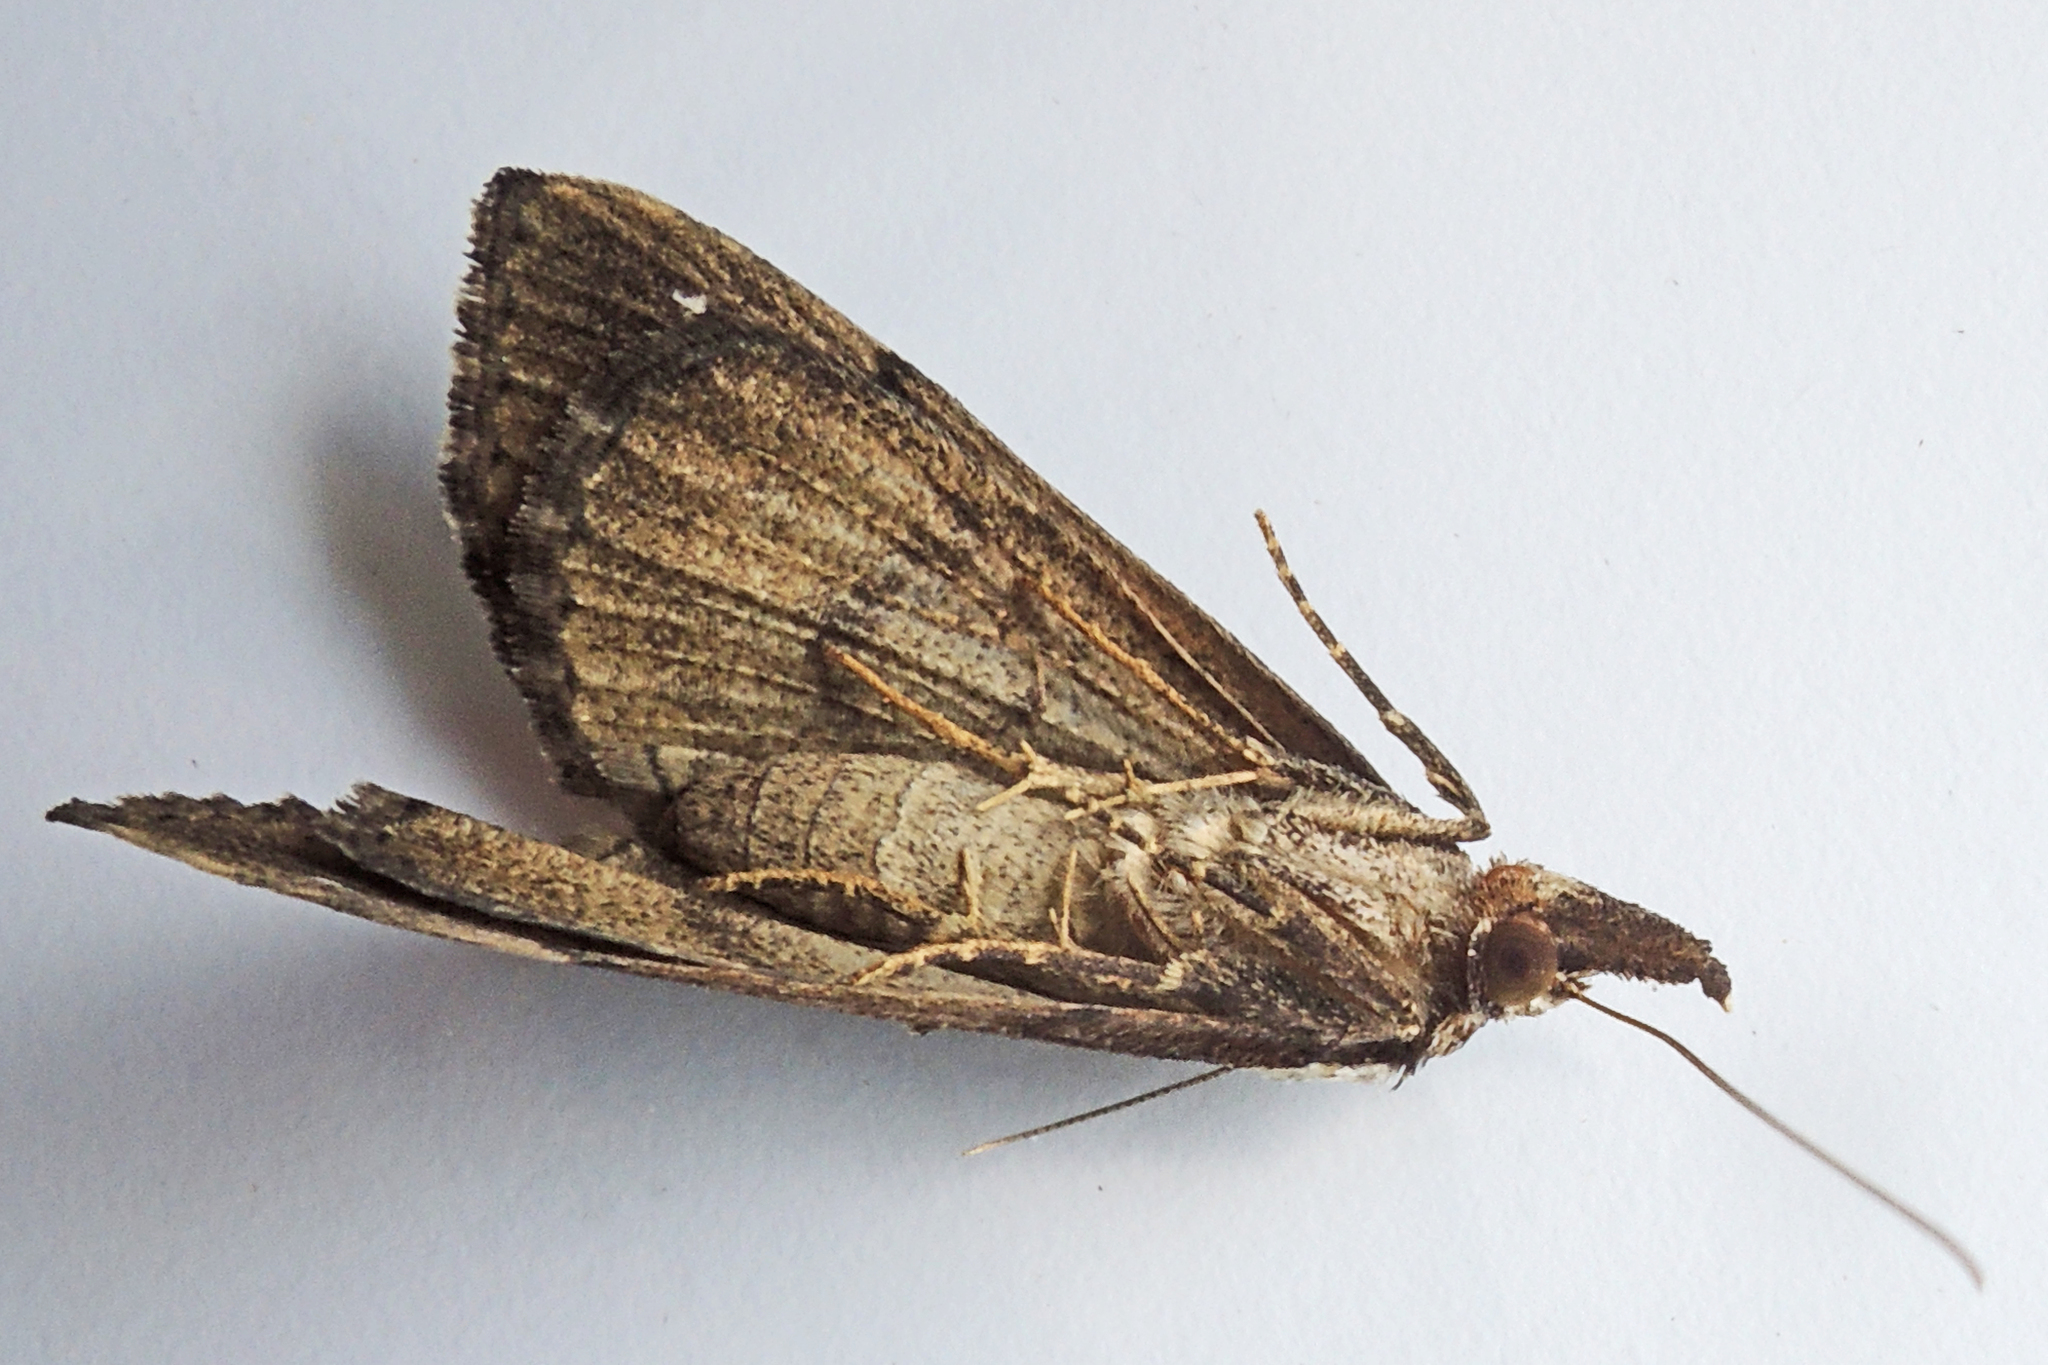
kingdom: Animalia
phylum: Arthropoda
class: Insecta
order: Lepidoptera
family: Erebidae
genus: Hypena
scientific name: Hypena baltimoralis
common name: Baltimore snout
